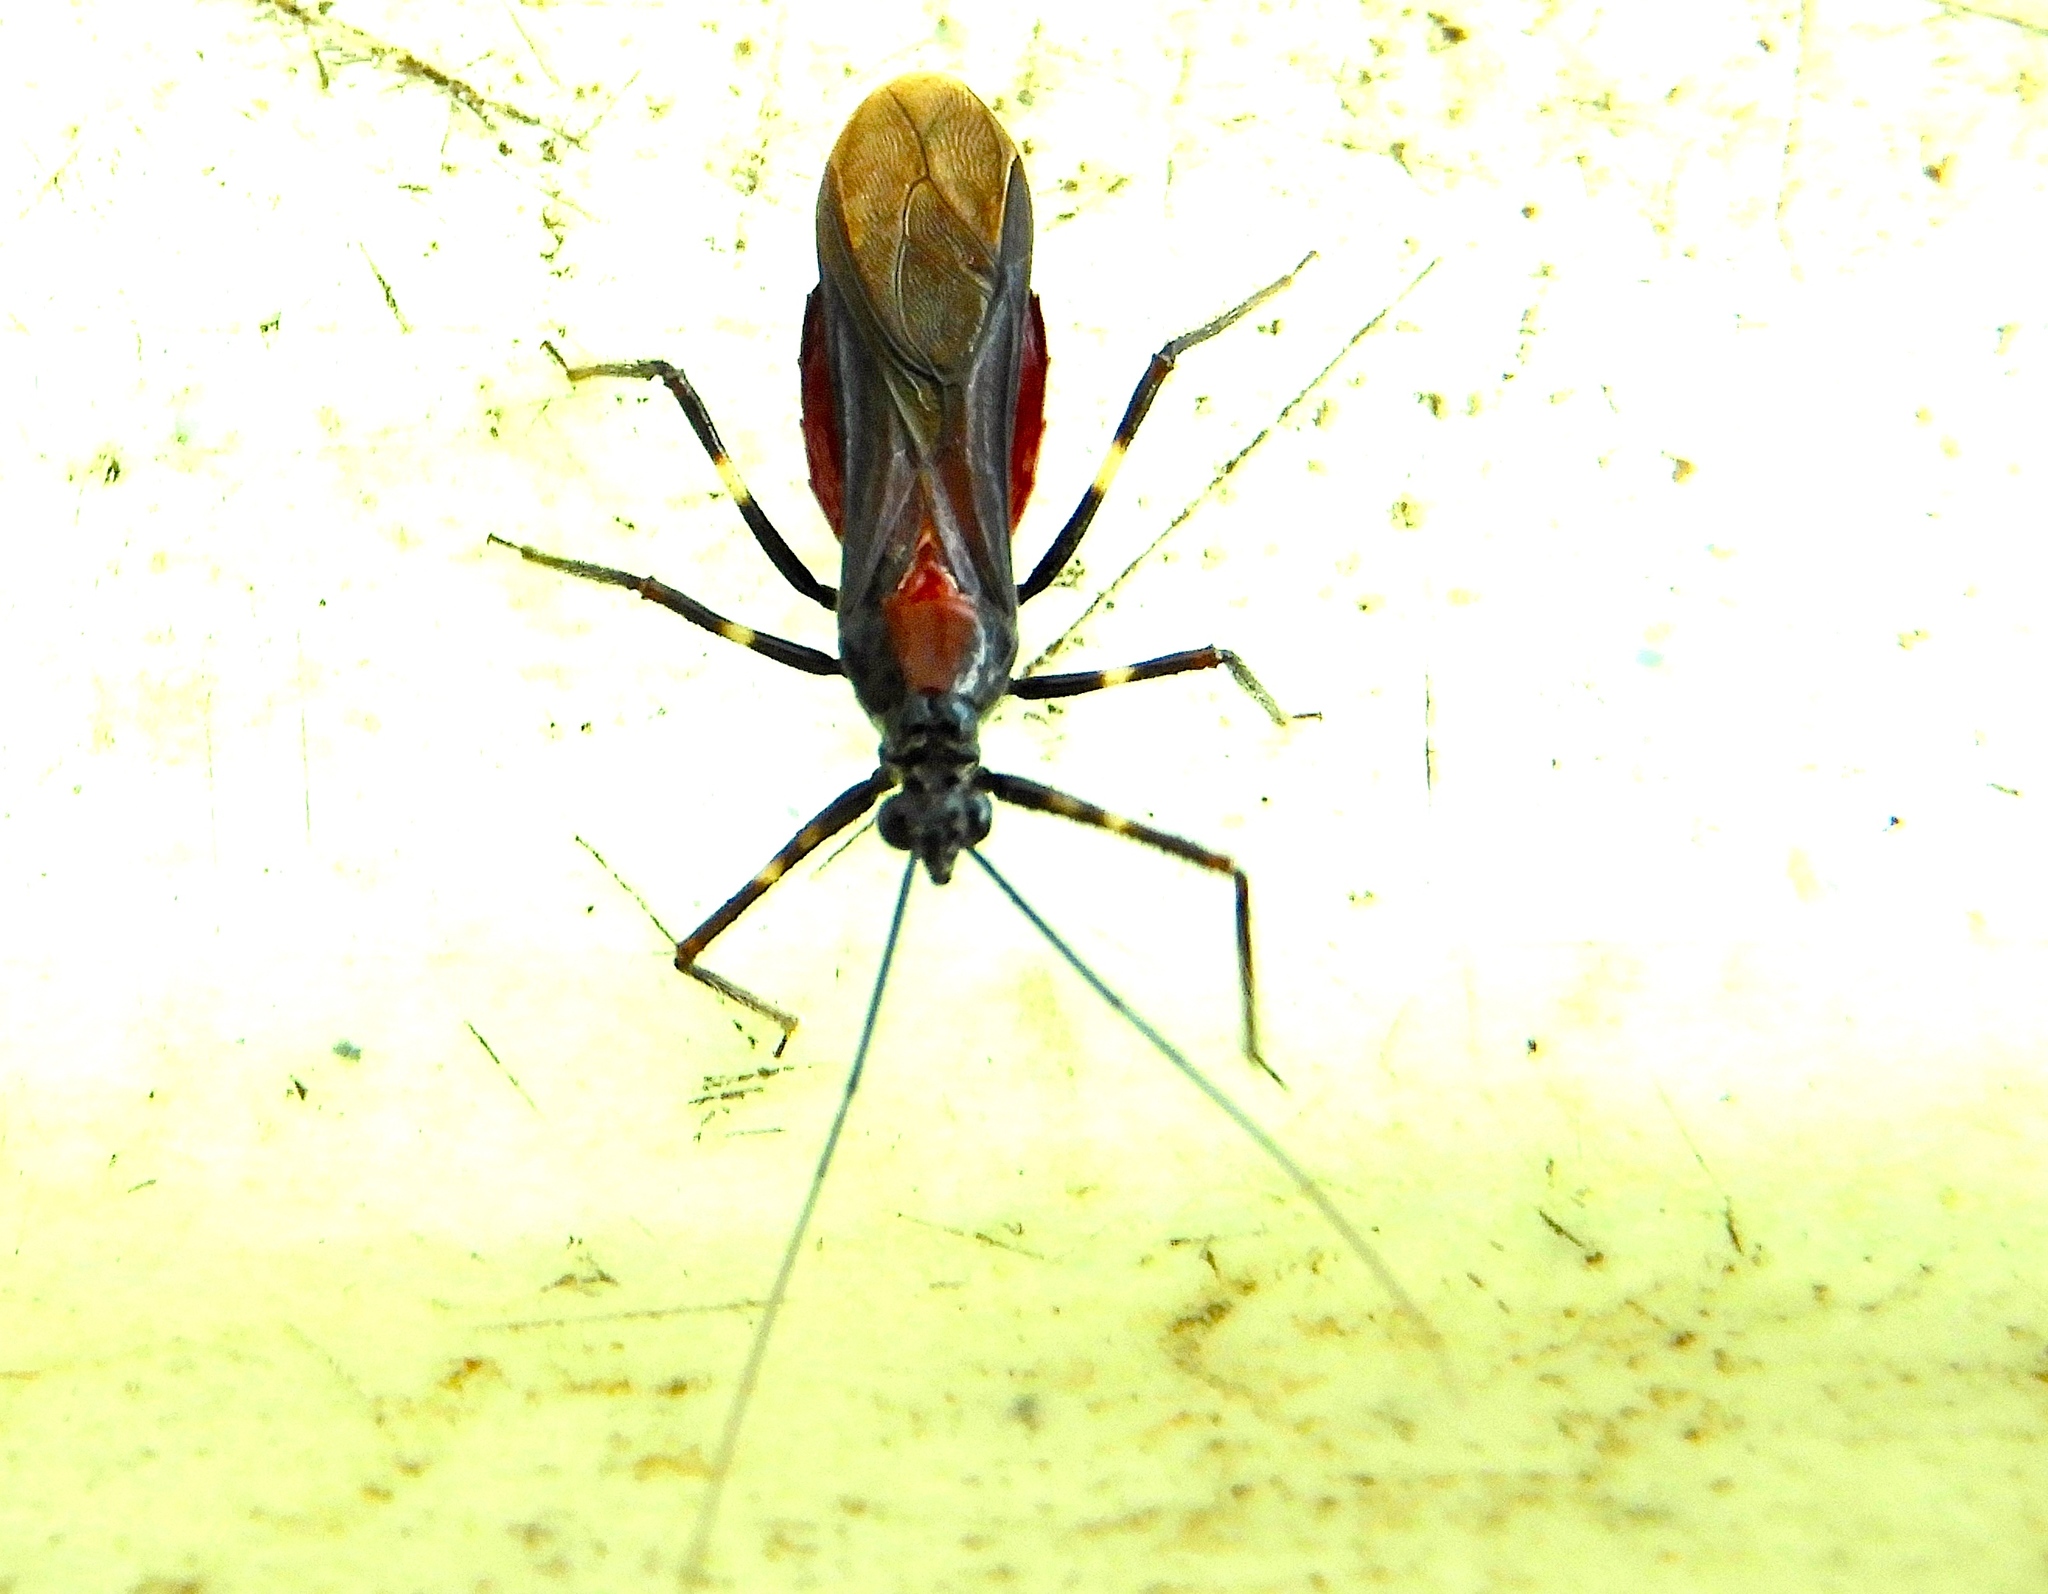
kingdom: Animalia
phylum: Arthropoda
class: Insecta
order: Hemiptera
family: Reduviidae
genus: Graptocleptes
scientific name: Graptocleptes
